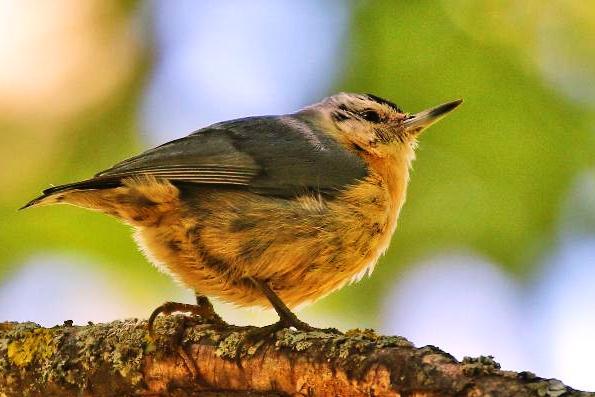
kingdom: Animalia
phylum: Chordata
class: Aves
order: Passeriformes
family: Sittidae
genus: Sitta
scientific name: Sitta ledanti
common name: Algerian nuthatch
